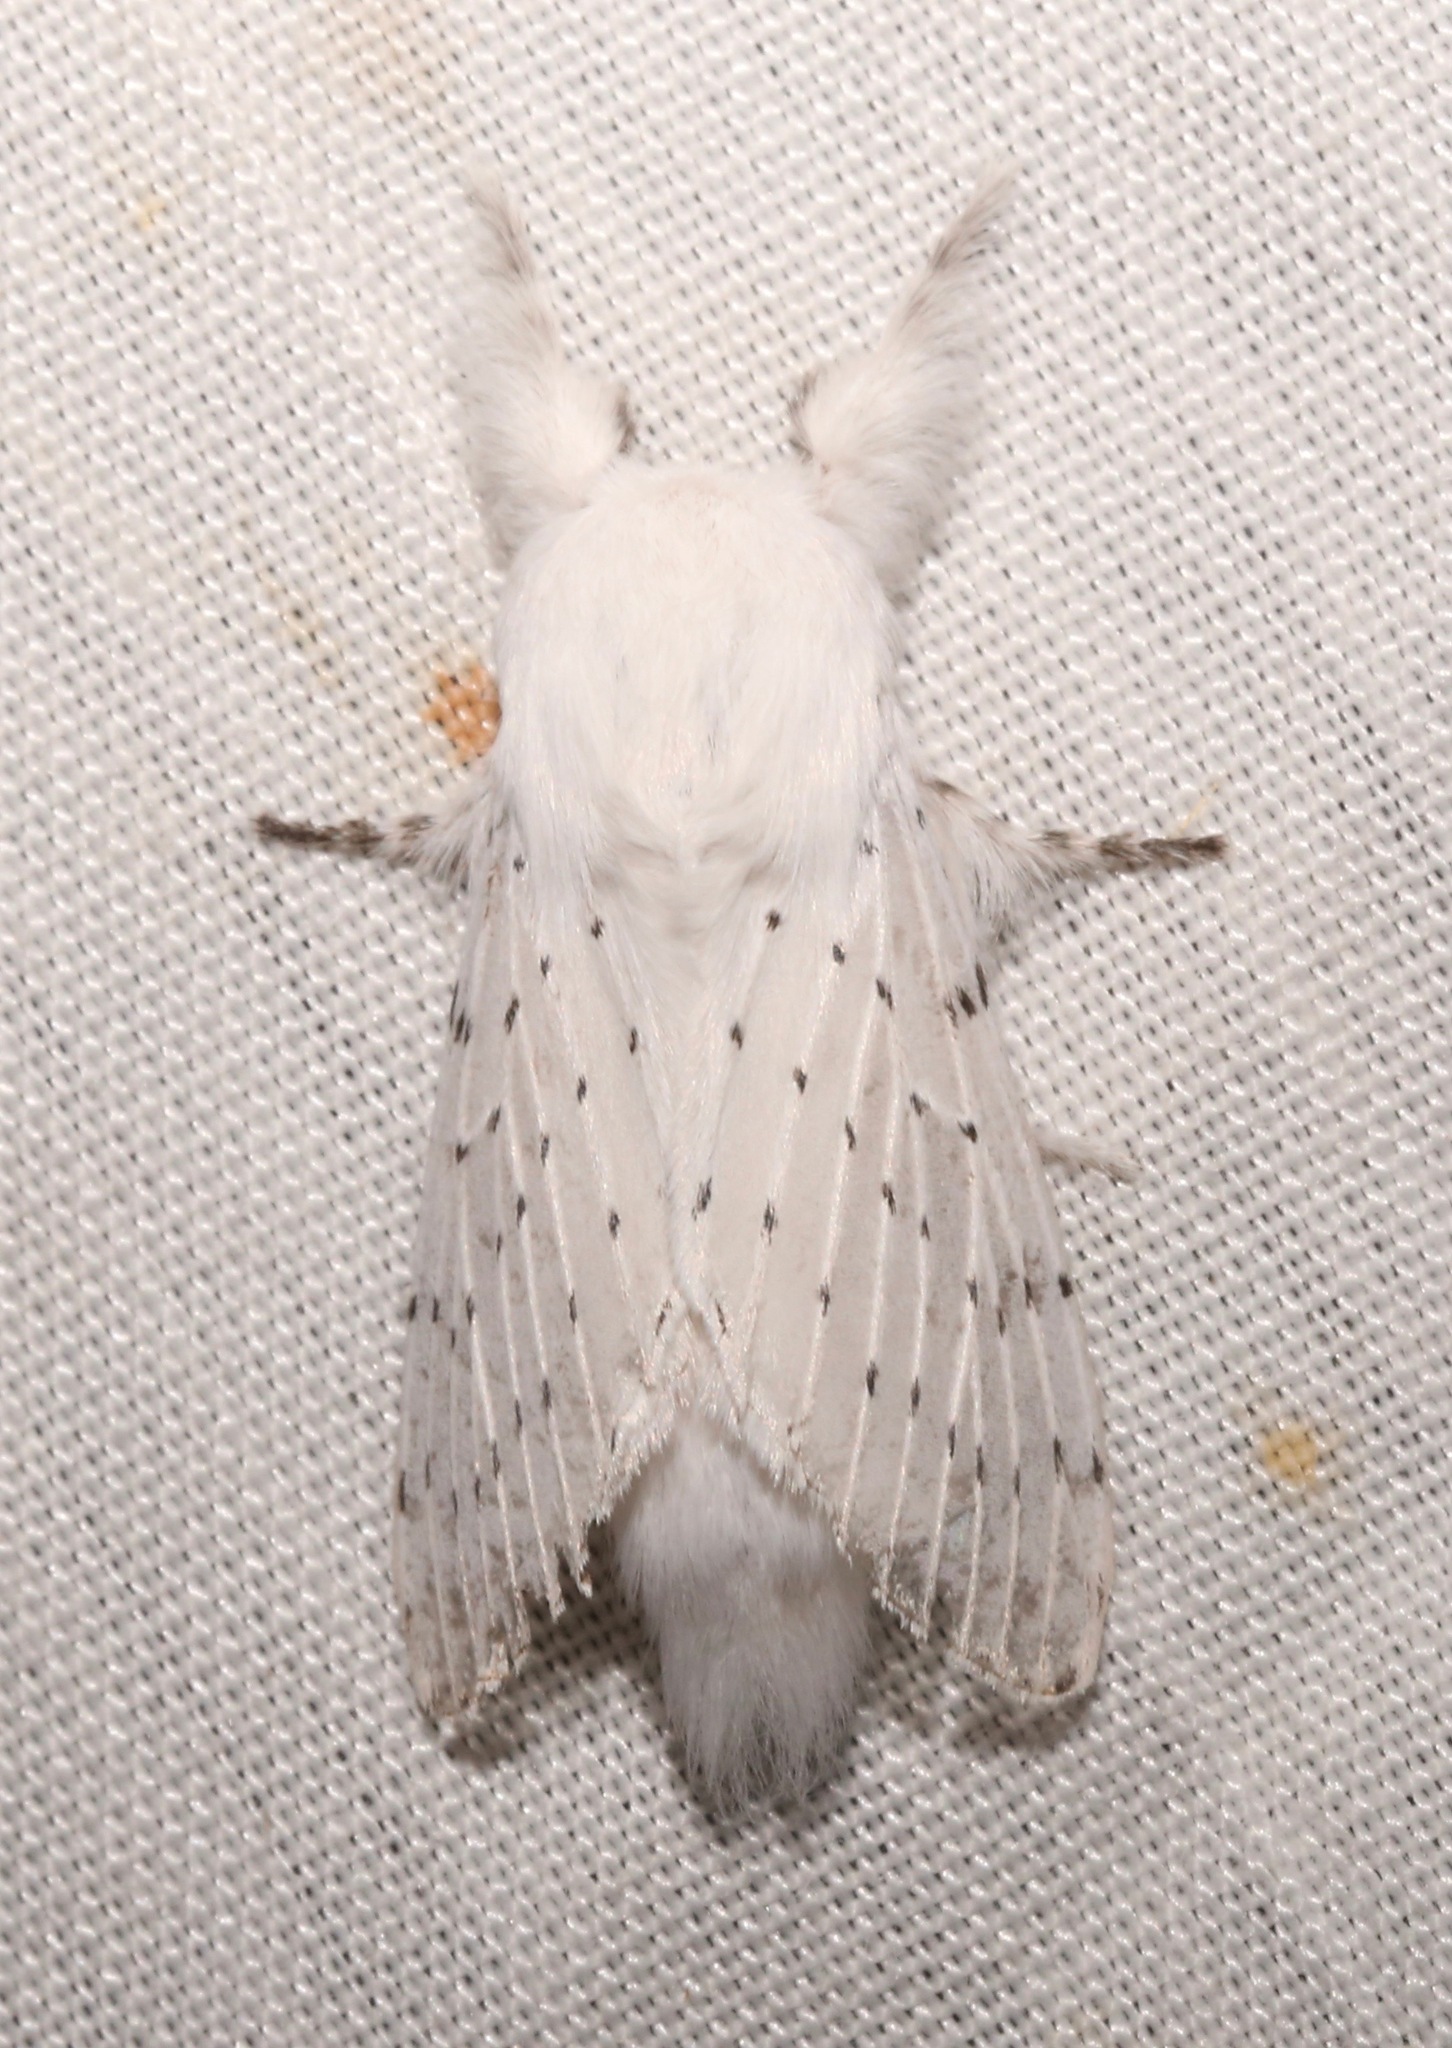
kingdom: Animalia
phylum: Arthropoda
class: Insecta
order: Lepidoptera
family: Lasiocampidae
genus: Artace
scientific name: Artace colaria
